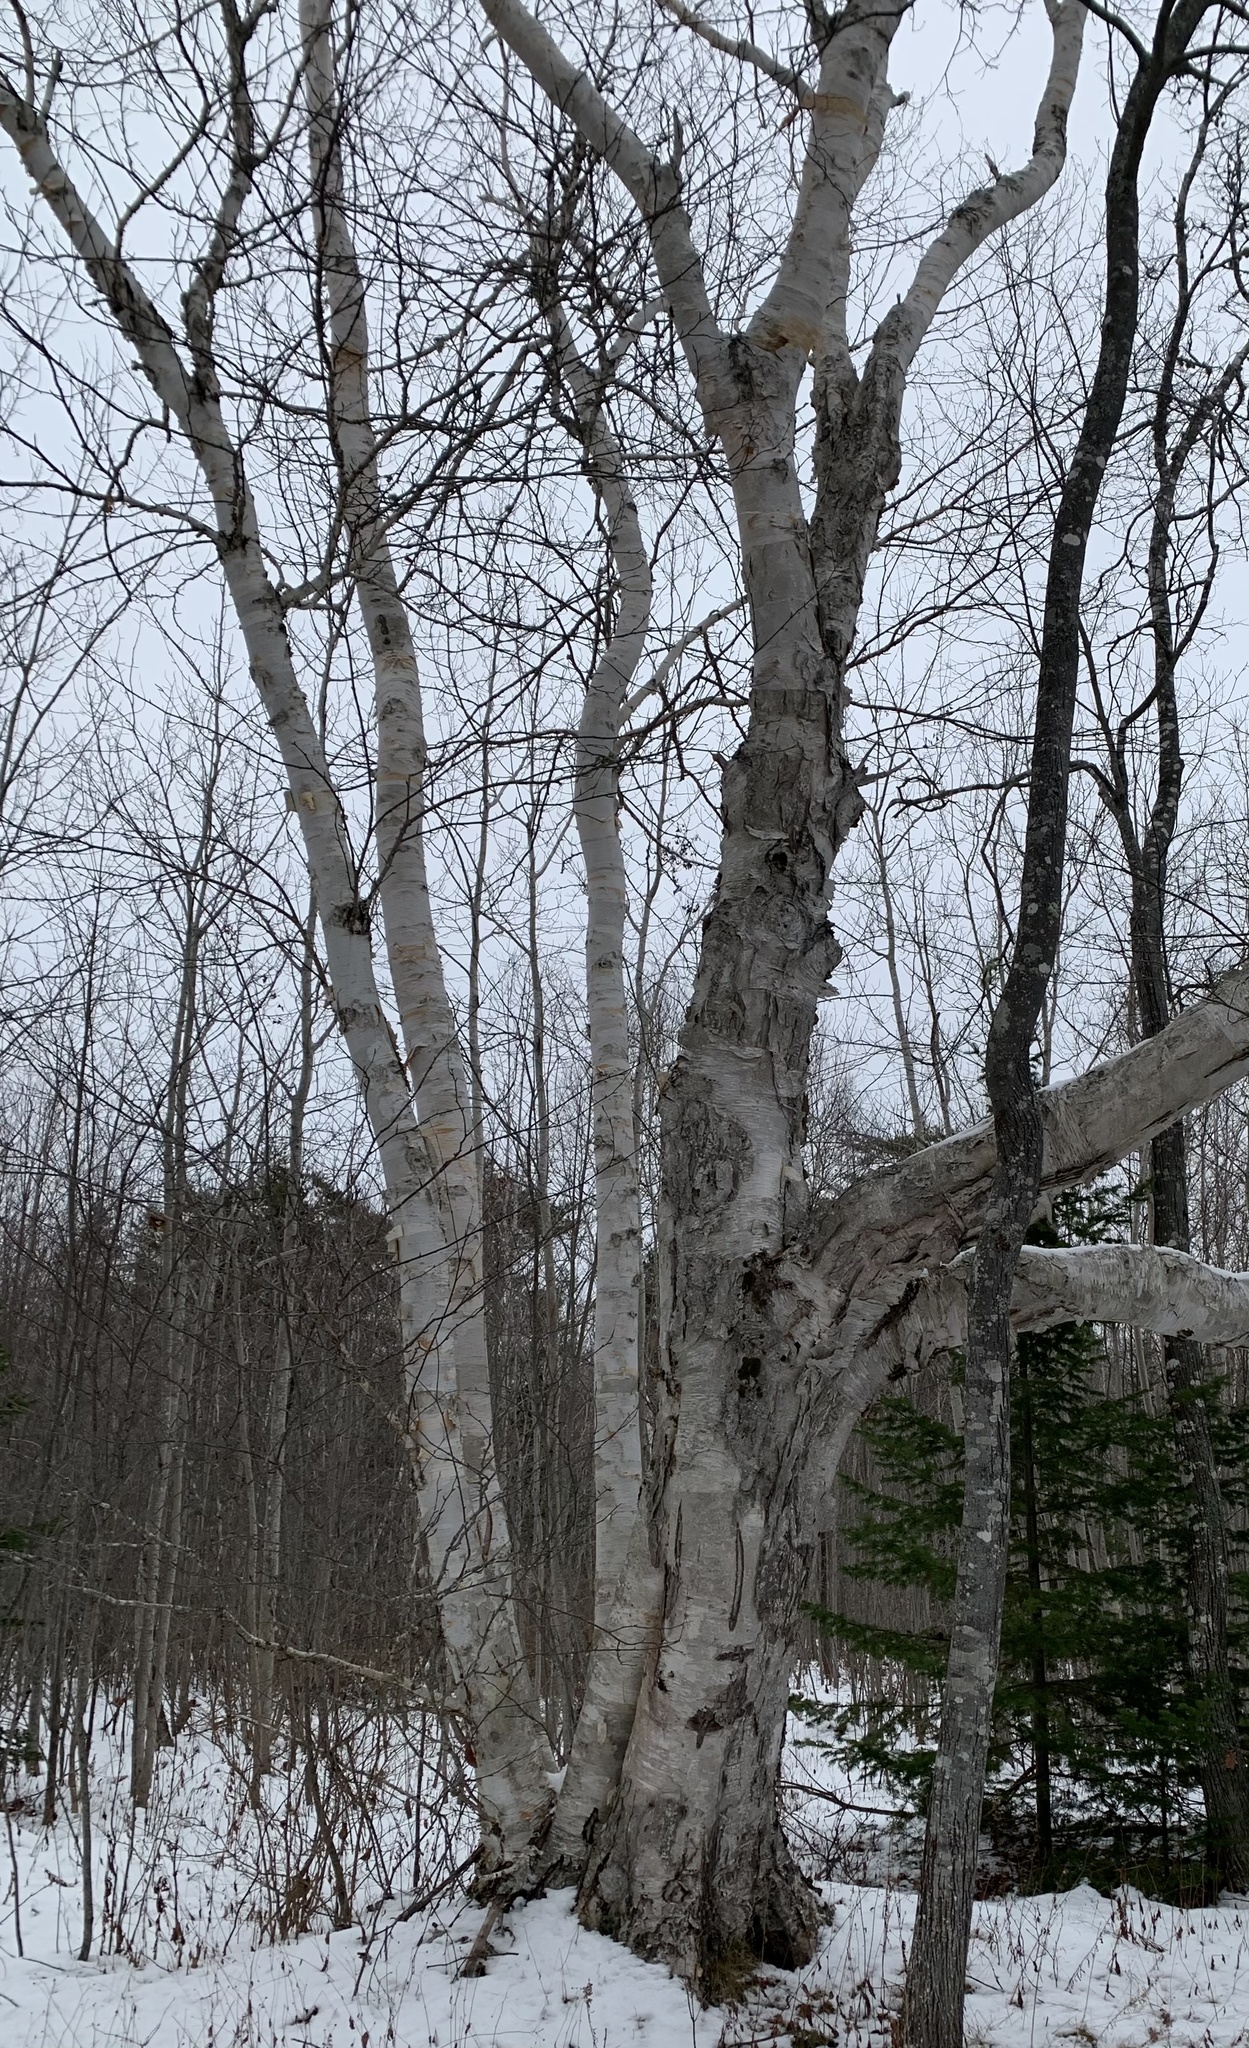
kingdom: Plantae
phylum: Tracheophyta
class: Magnoliopsida
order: Fagales
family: Betulaceae
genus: Betula
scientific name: Betula papyrifera
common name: Paper birch
